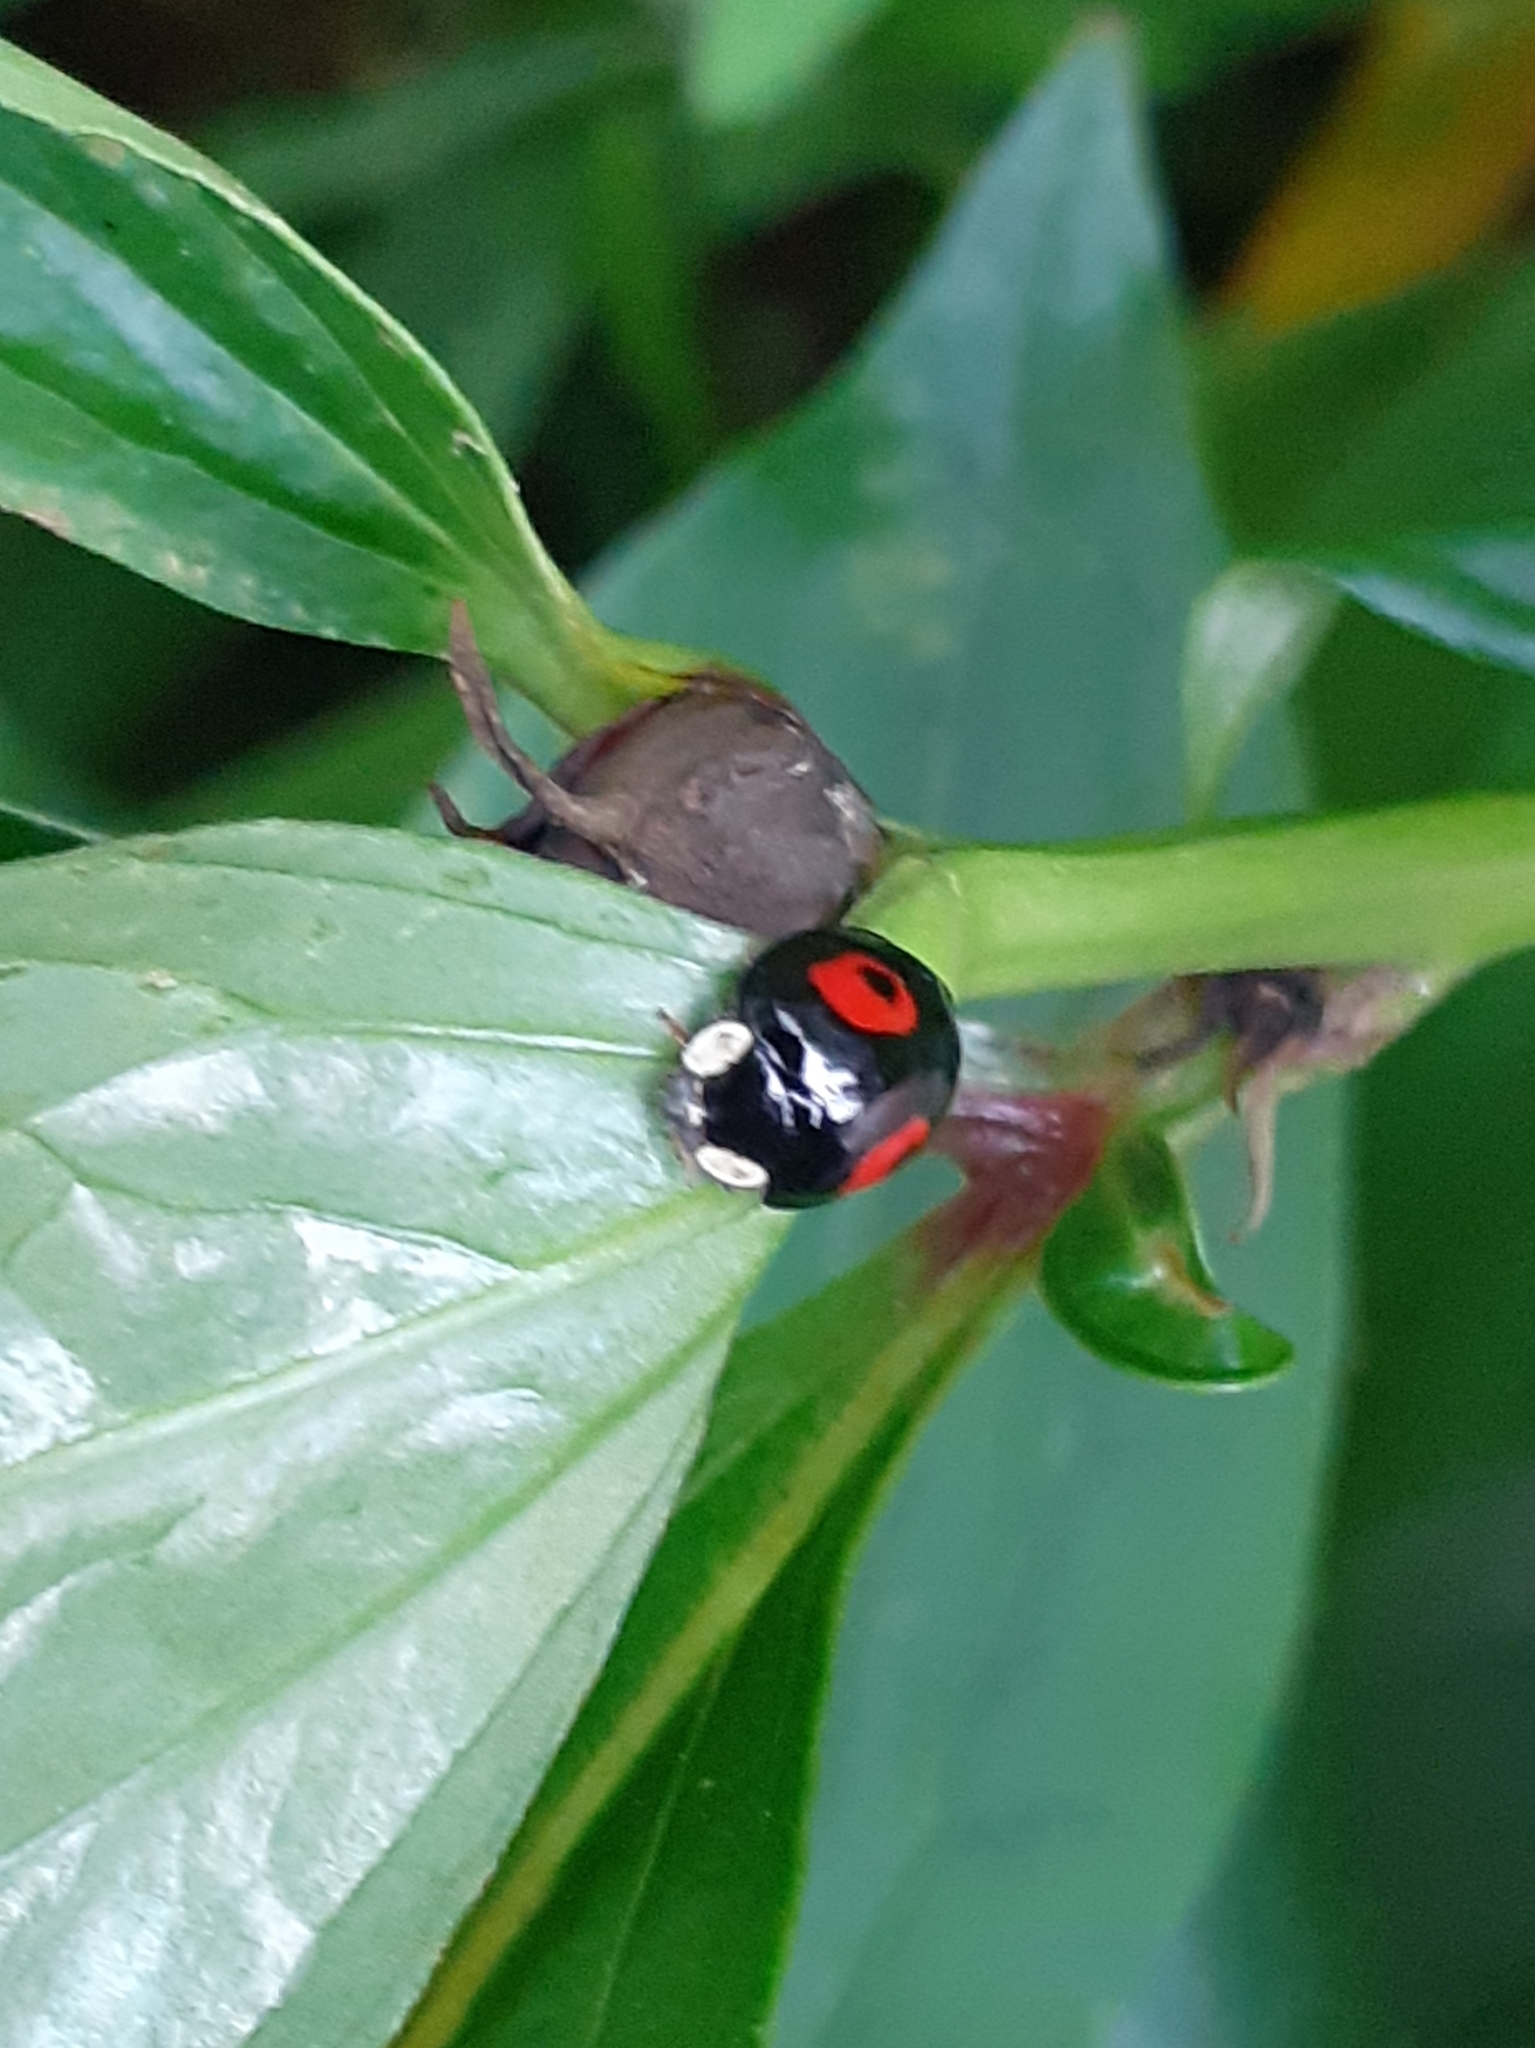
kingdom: Animalia
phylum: Arthropoda
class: Insecta
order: Coleoptera
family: Coccinellidae
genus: Harmonia
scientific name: Harmonia axyridis
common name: Harlequin ladybird
